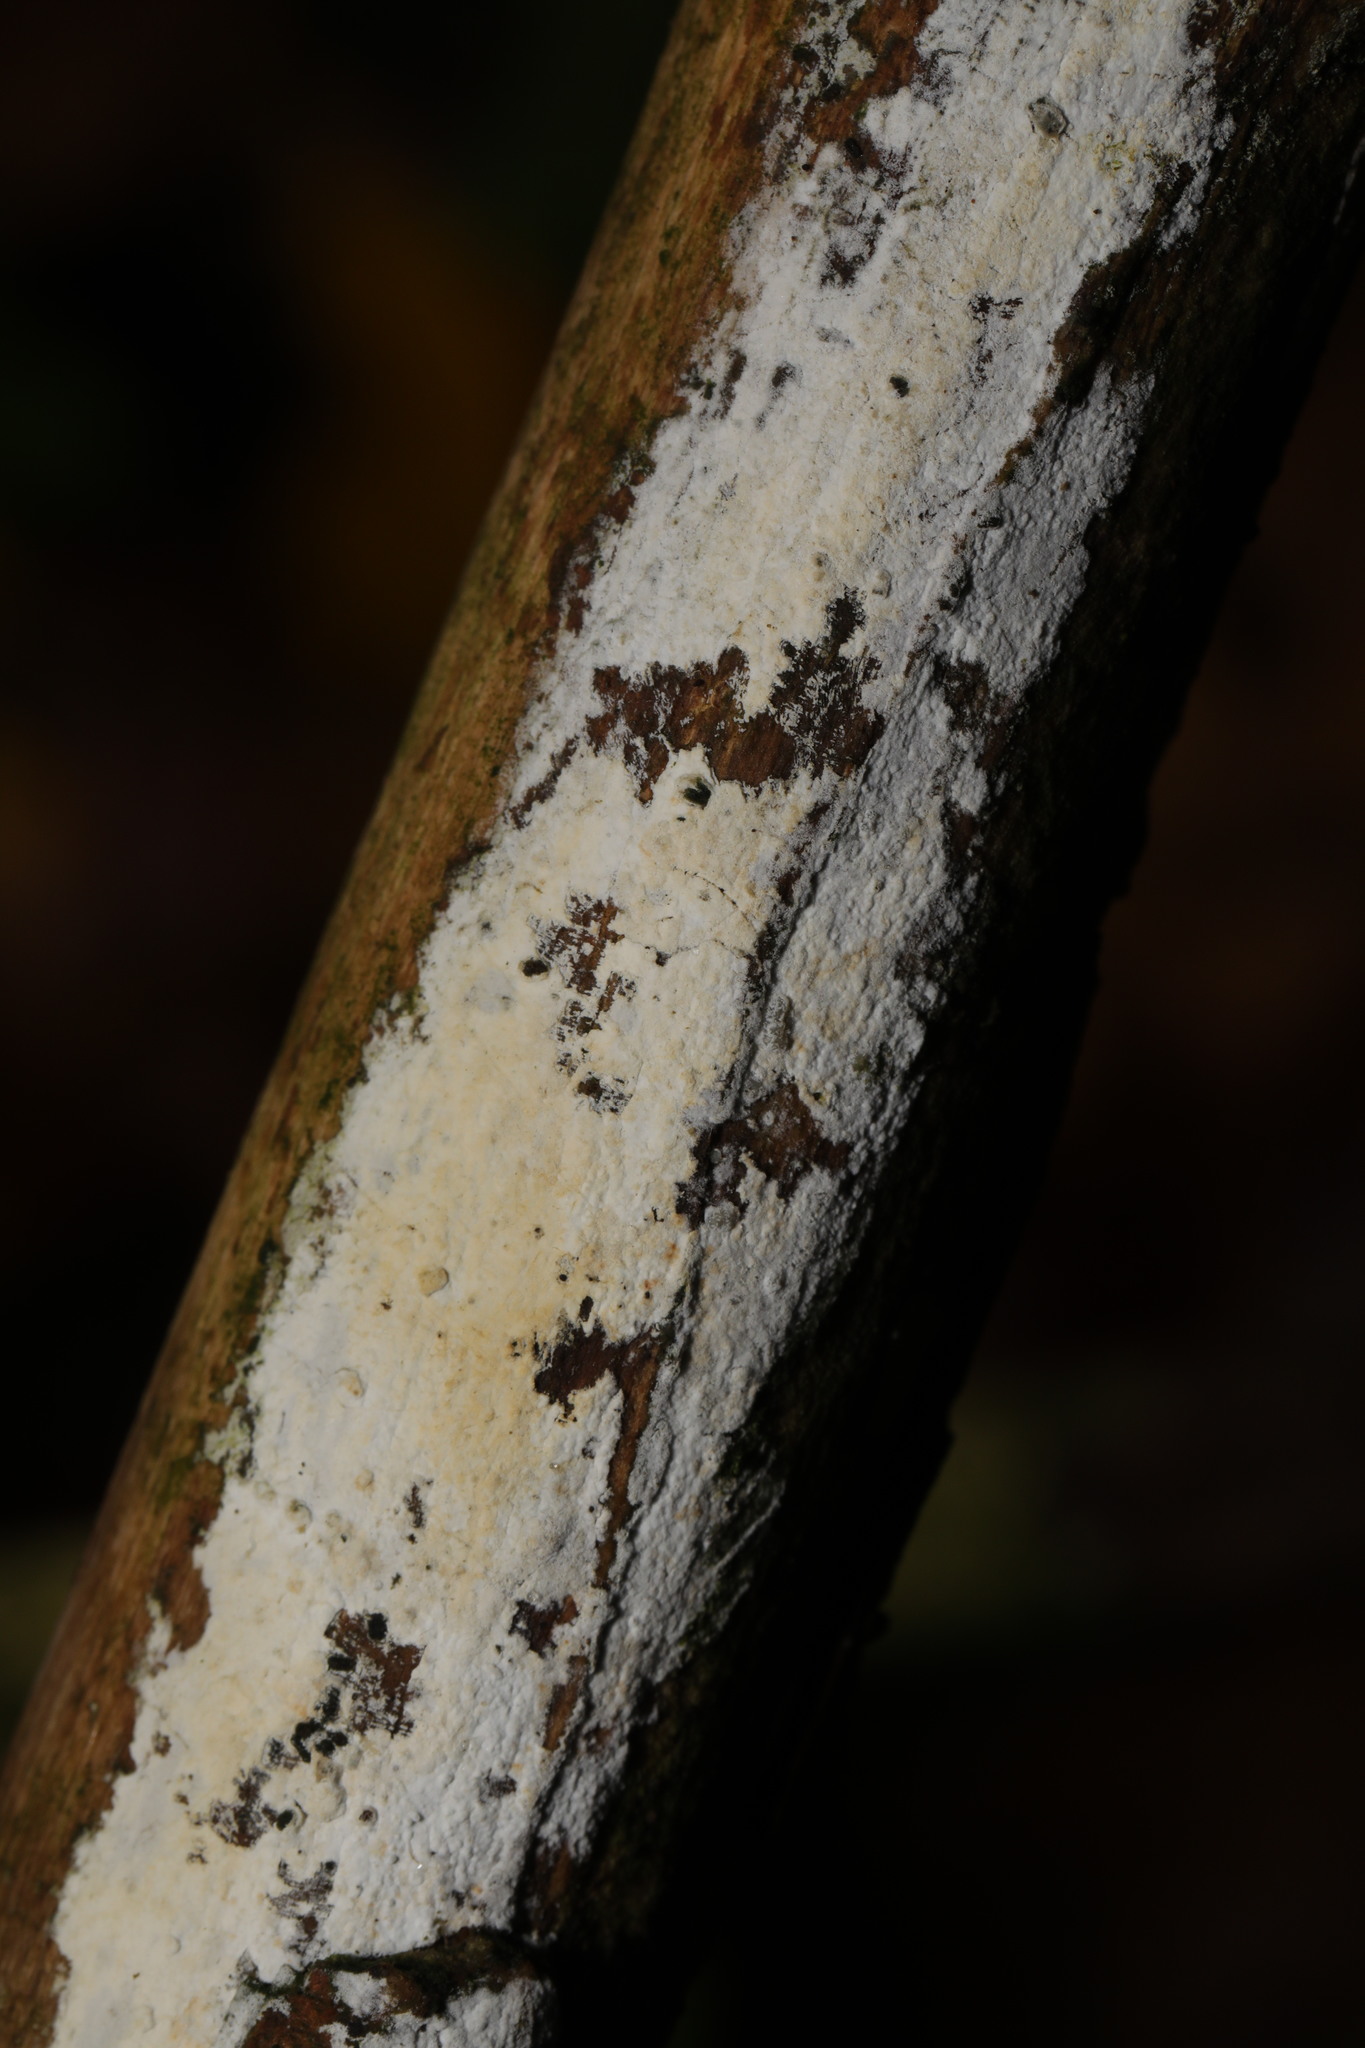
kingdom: Fungi
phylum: Basidiomycota
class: Agaricomycetes
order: Corticiales
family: Corticiaceae
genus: Lyomyces
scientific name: Lyomyces sambuci
